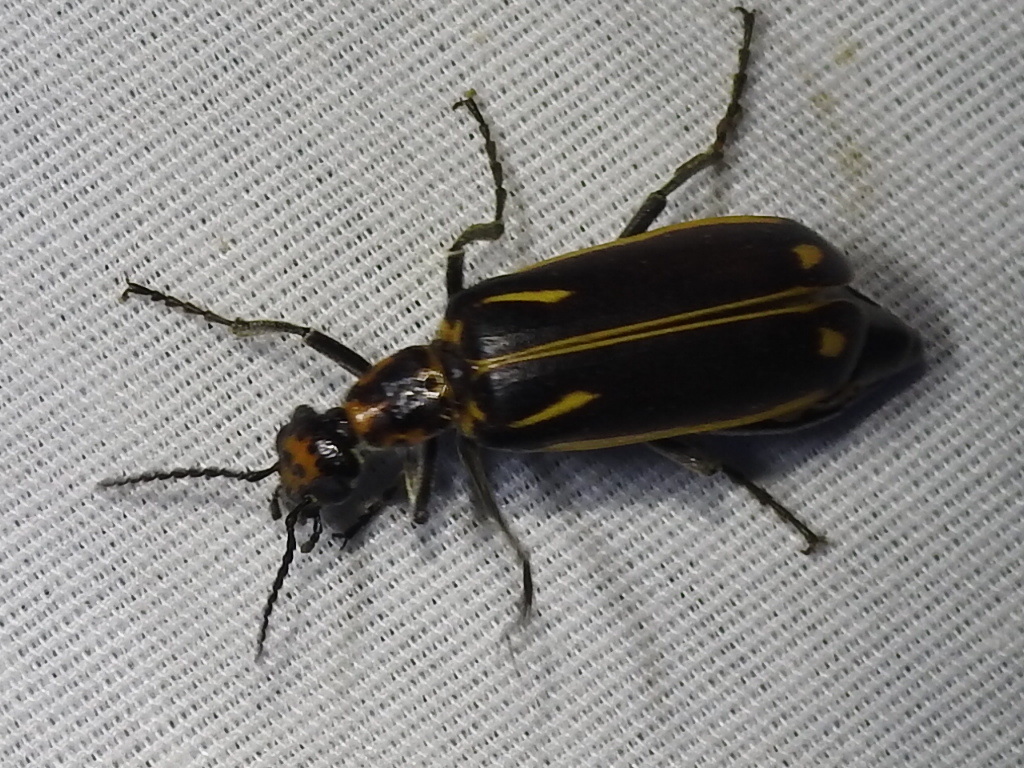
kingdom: Animalia
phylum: Arthropoda
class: Insecta
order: Coleoptera
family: Meloidae
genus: Pyrota
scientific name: Pyrota insulata
